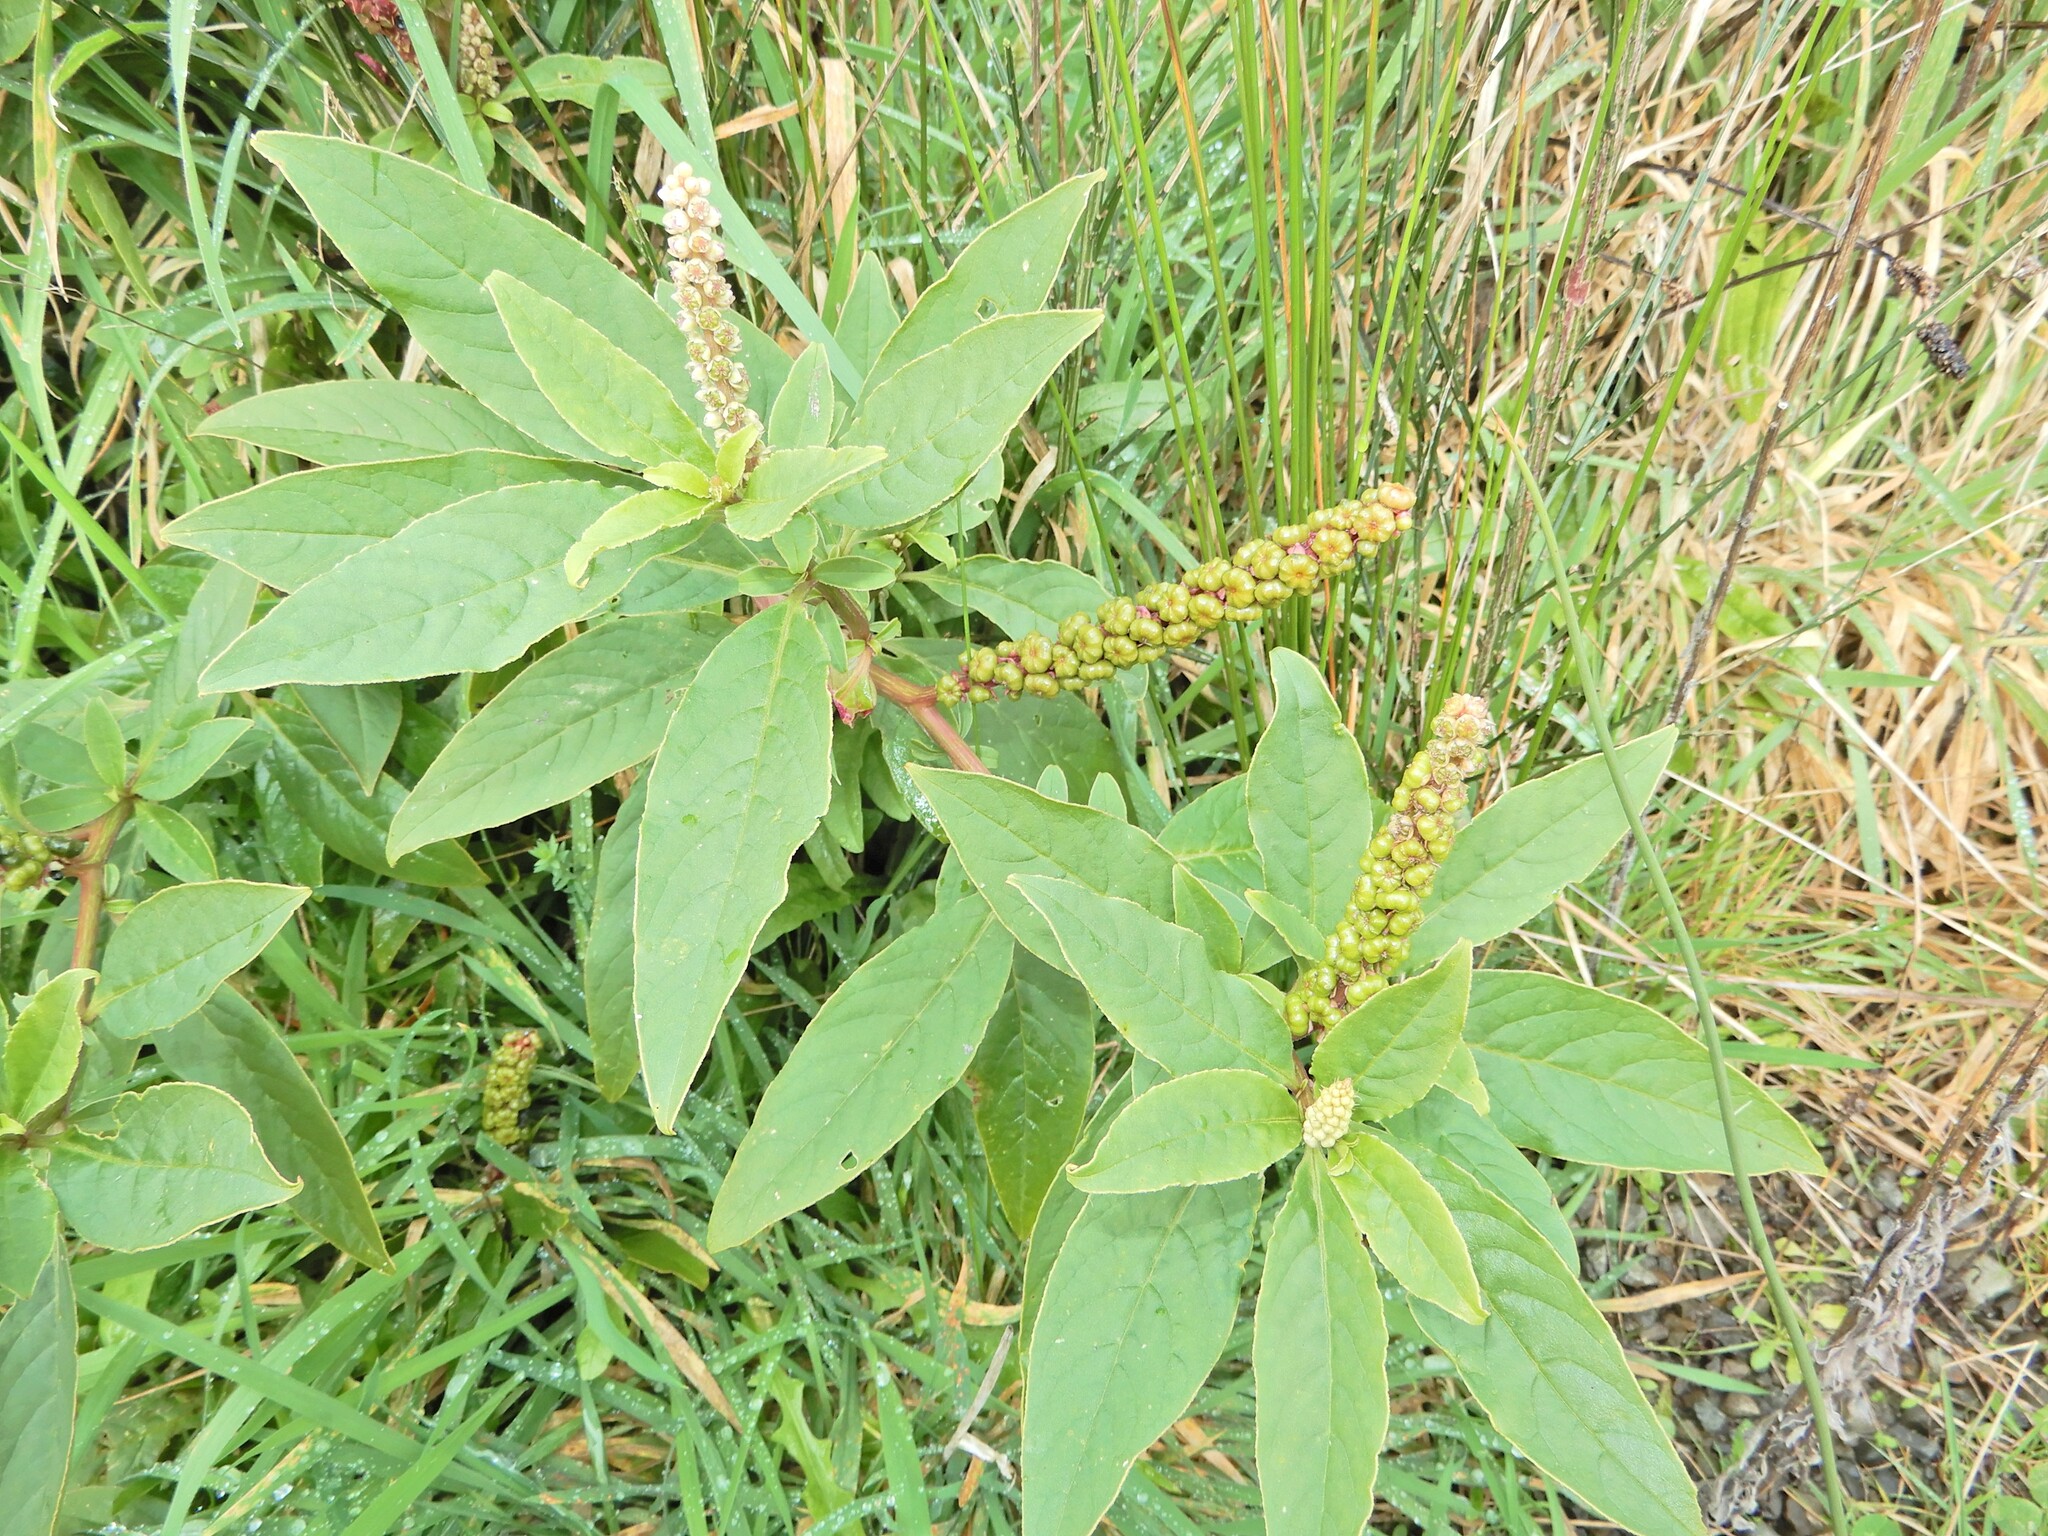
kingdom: Plantae
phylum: Tracheophyta
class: Magnoliopsida
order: Caryophyllales
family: Phytolaccaceae
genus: Phytolacca
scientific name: Phytolacca icosandra
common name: Button pokeweed
